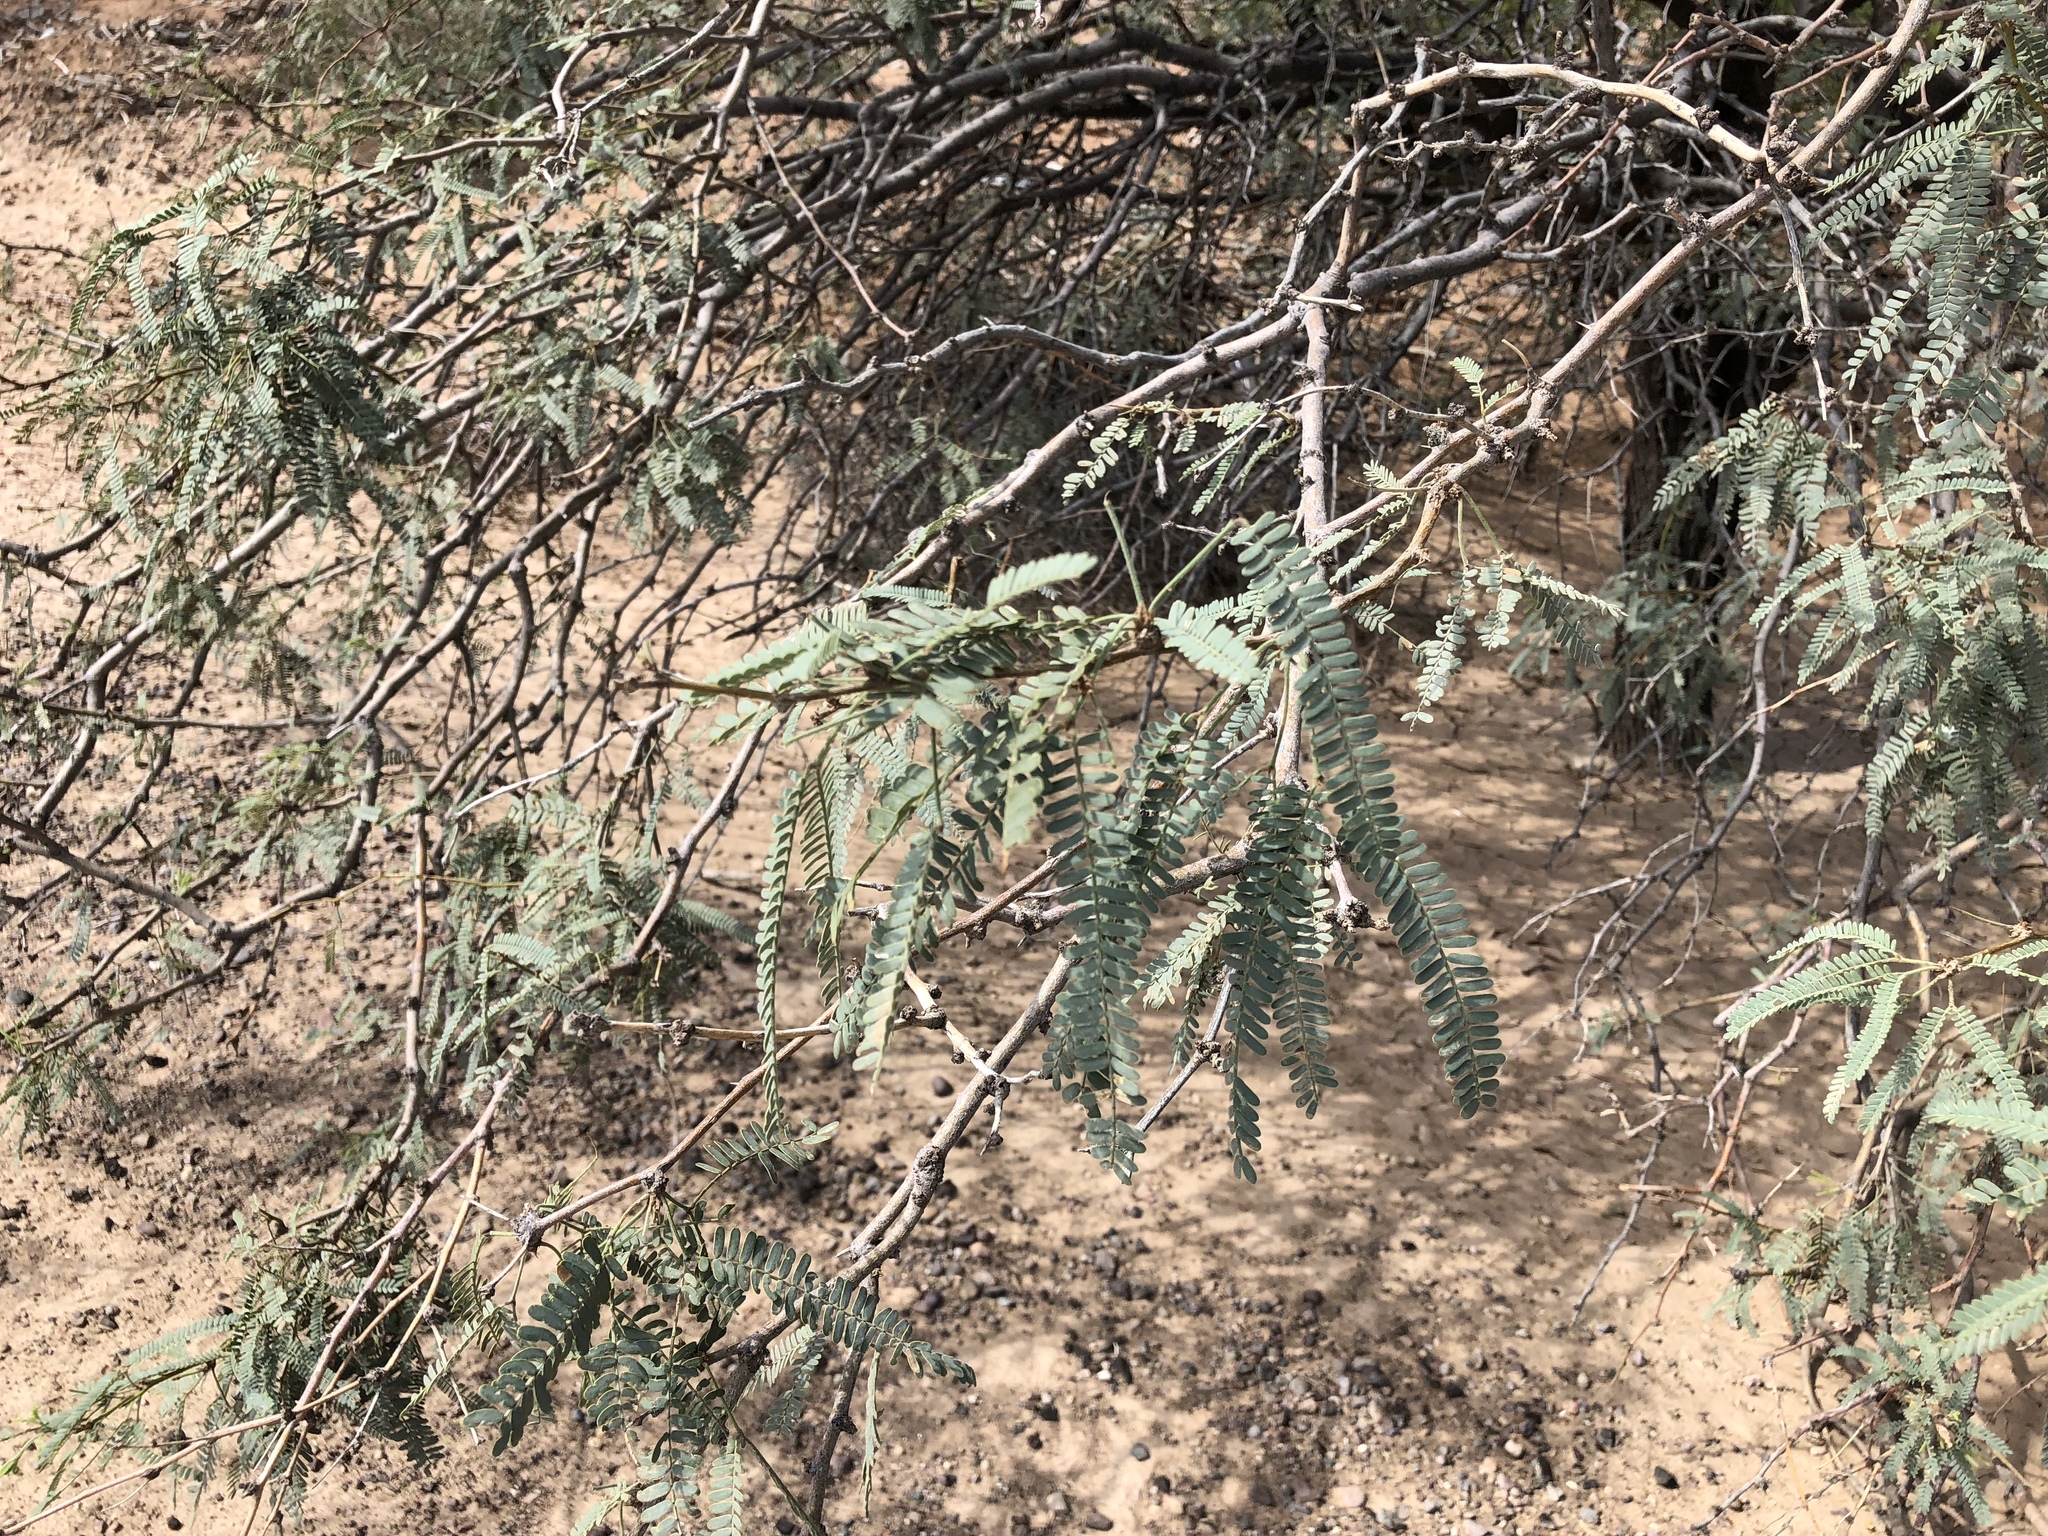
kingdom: Plantae
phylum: Tracheophyta
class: Magnoliopsida
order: Fabales
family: Fabaceae
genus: Prosopis
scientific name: Prosopis velutina
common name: Velvet mesquite
